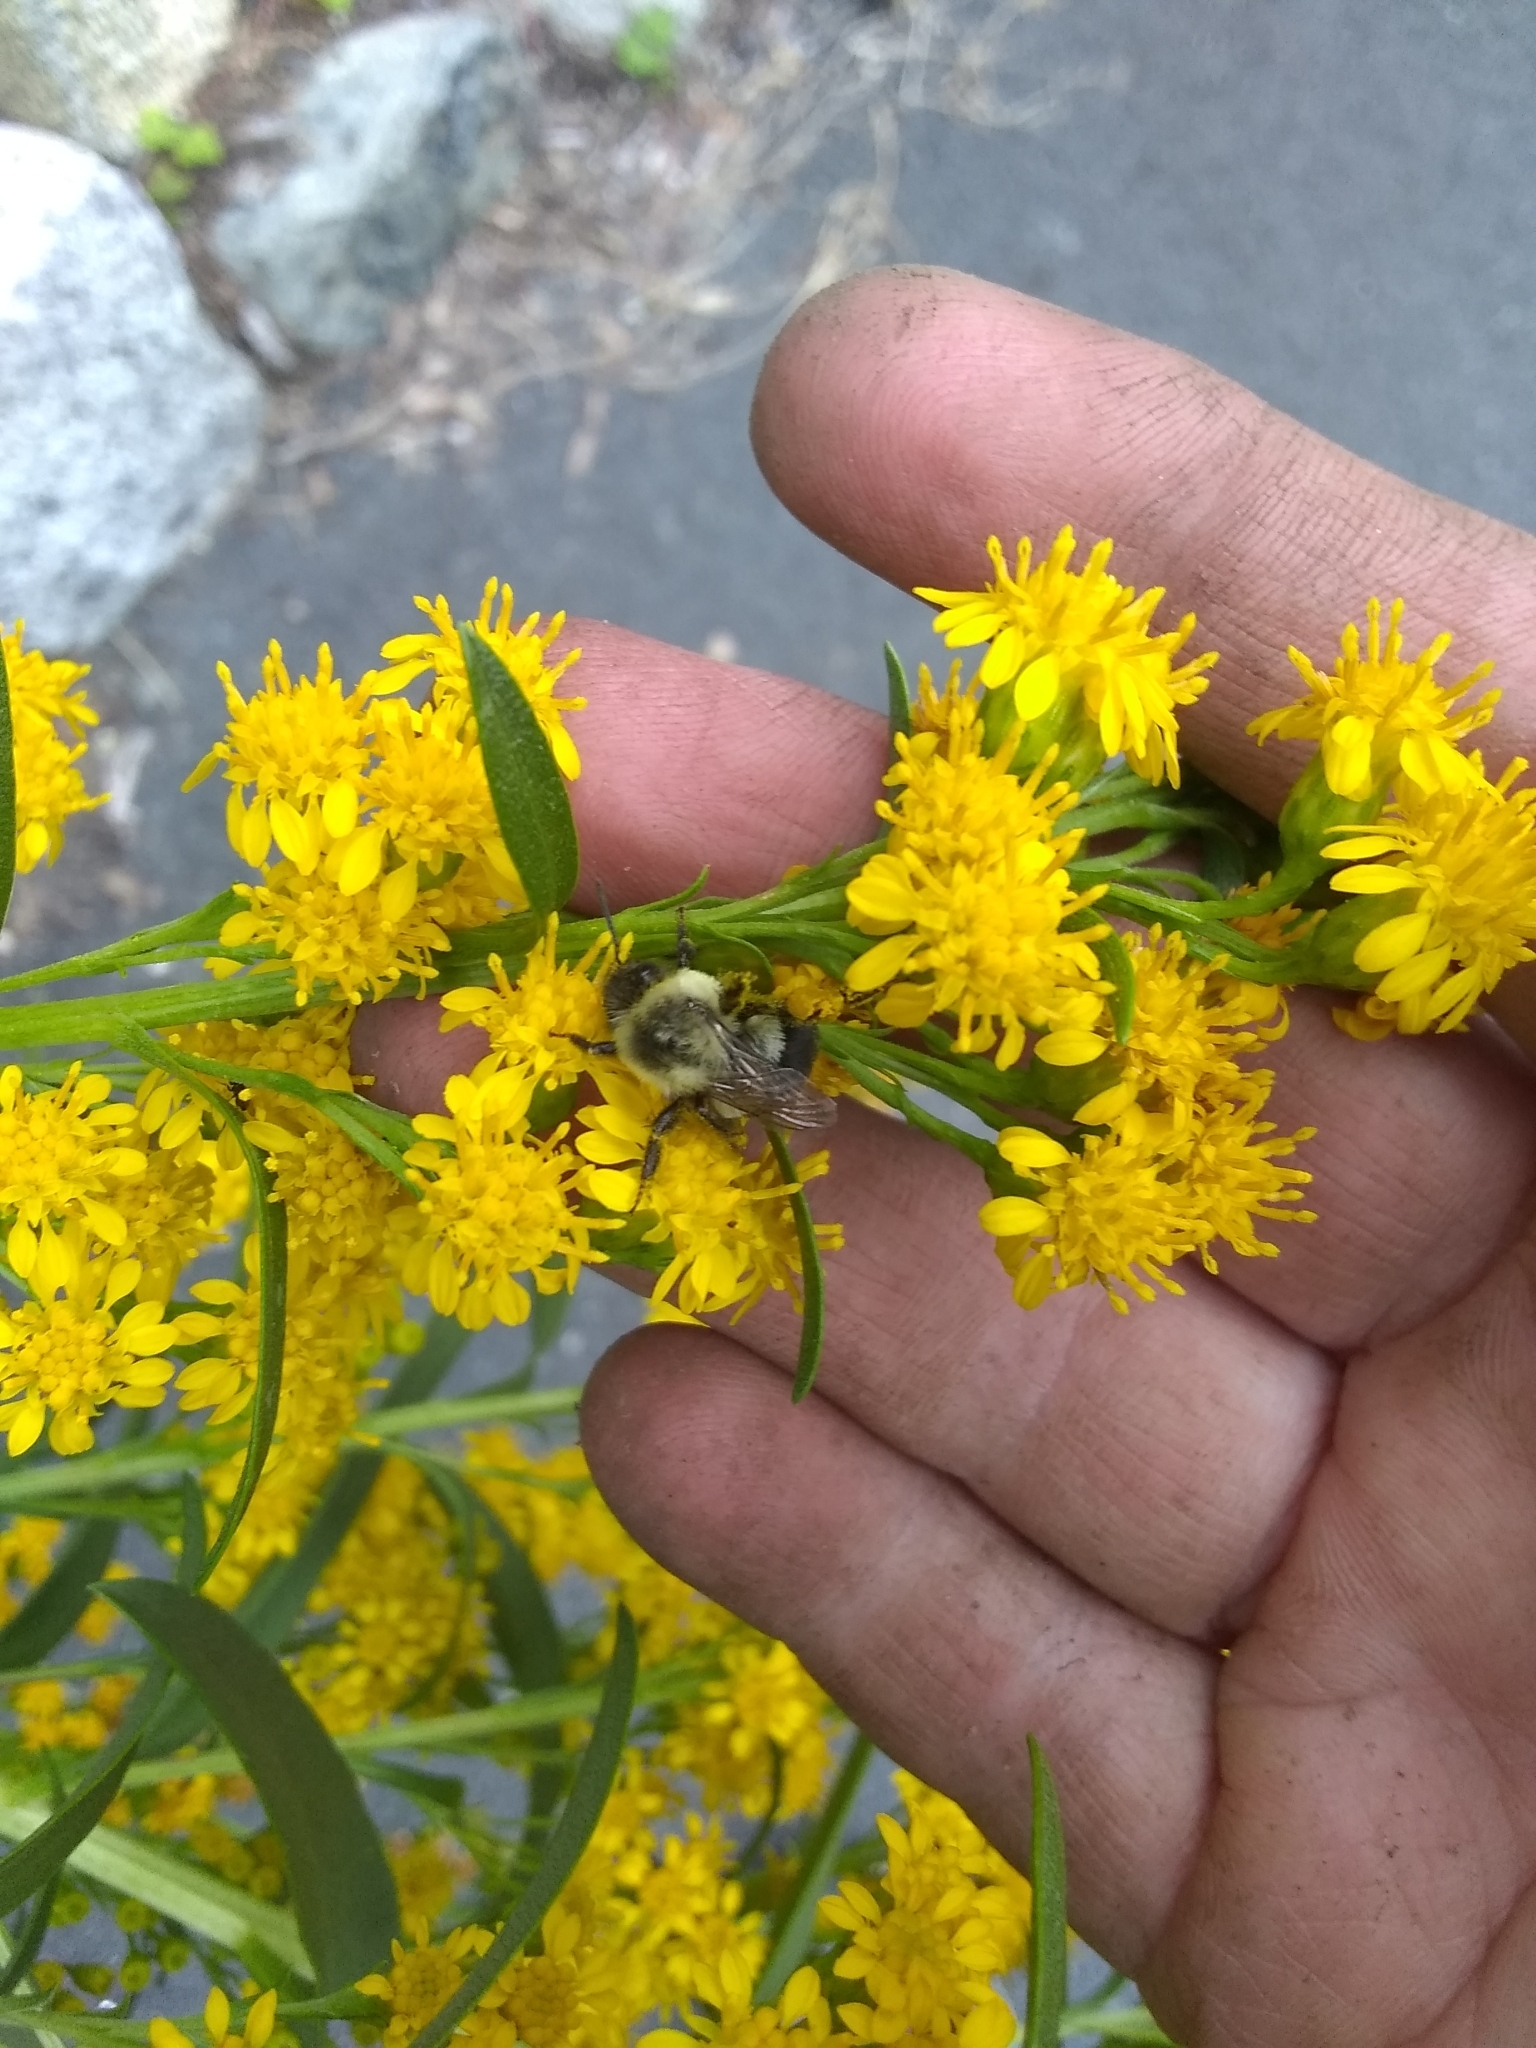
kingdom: Animalia
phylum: Arthropoda
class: Insecta
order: Hymenoptera
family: Apidae
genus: Bombus
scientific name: Bombus impatiens
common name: Common eastern bumble bee
